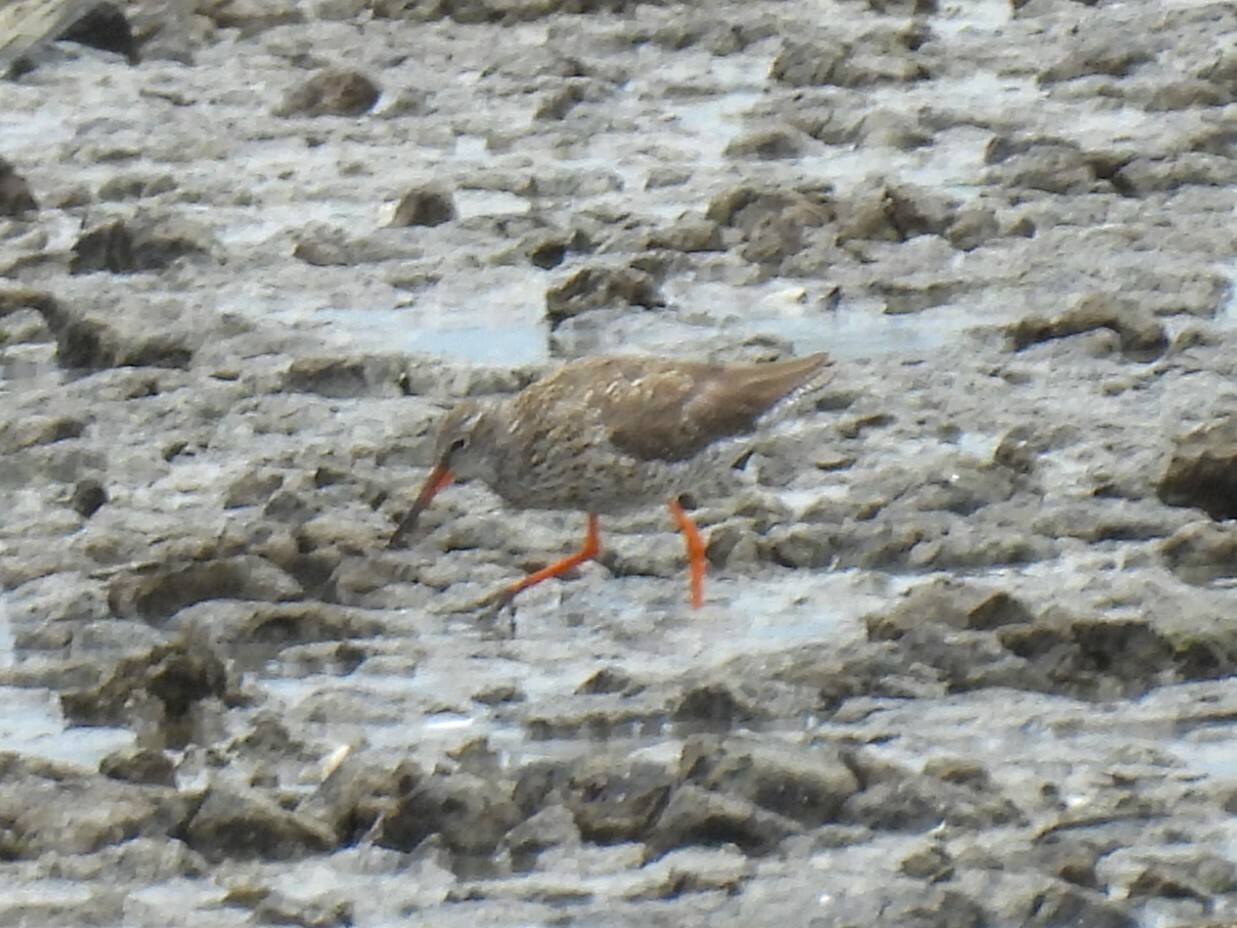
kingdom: Animalia
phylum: Chordata
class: Aves
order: Charadriiformes
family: Scolopacidae
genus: Tringa
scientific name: Tringa totanus
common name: Common redshank
